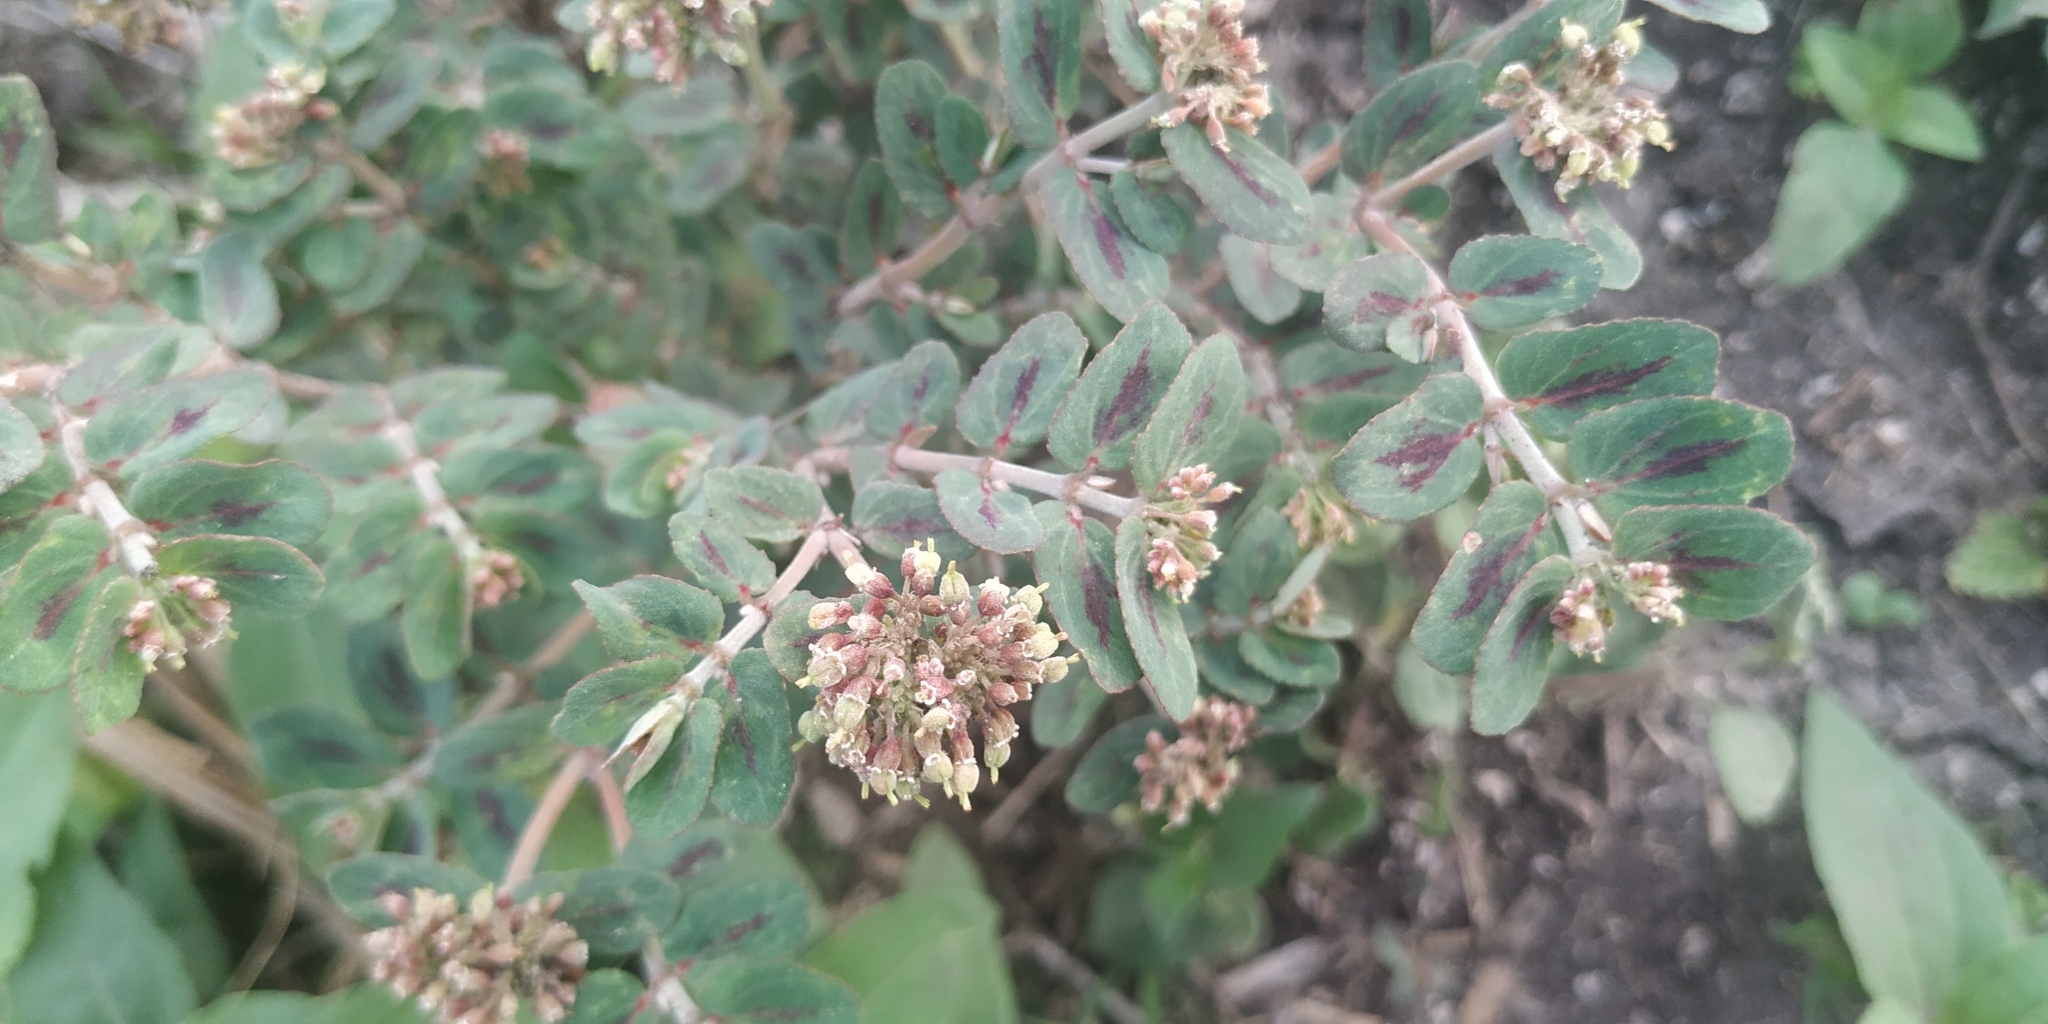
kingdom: Plantae
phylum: Tracheophyta
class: Magnoliopsida
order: Malpighiales
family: Euphorbiaceae
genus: Euphorbia
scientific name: Euphorbia berteroana
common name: Bertero's sandmat
